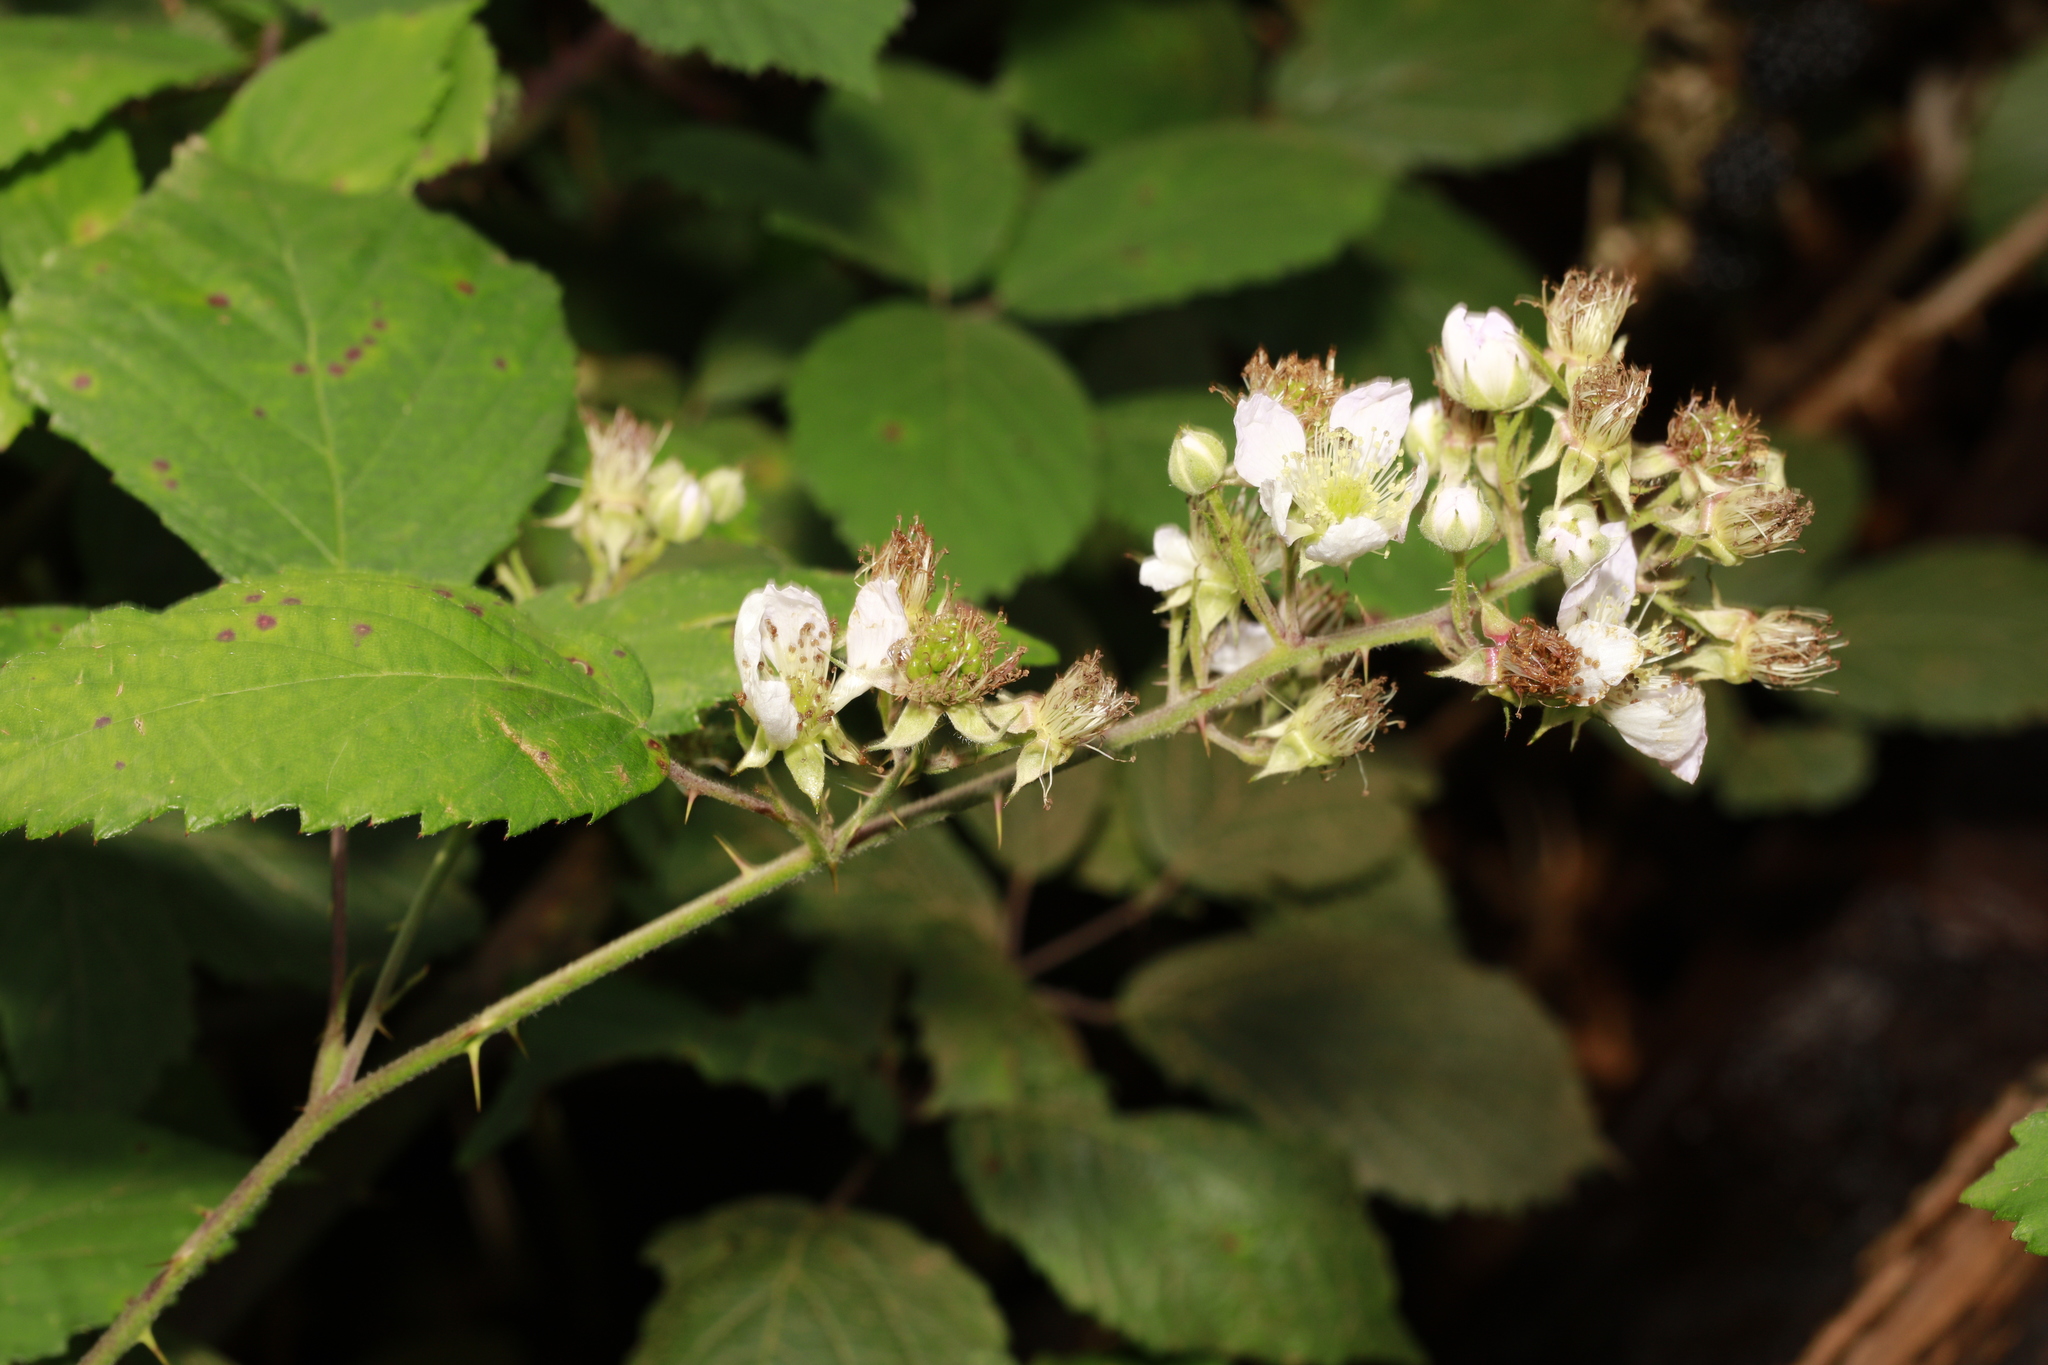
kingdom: Plantae
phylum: Tracheophyta
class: Magnoliopsida
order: Rosales
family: Rosaceae
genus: Rubus
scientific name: Rubus cissburiensis
